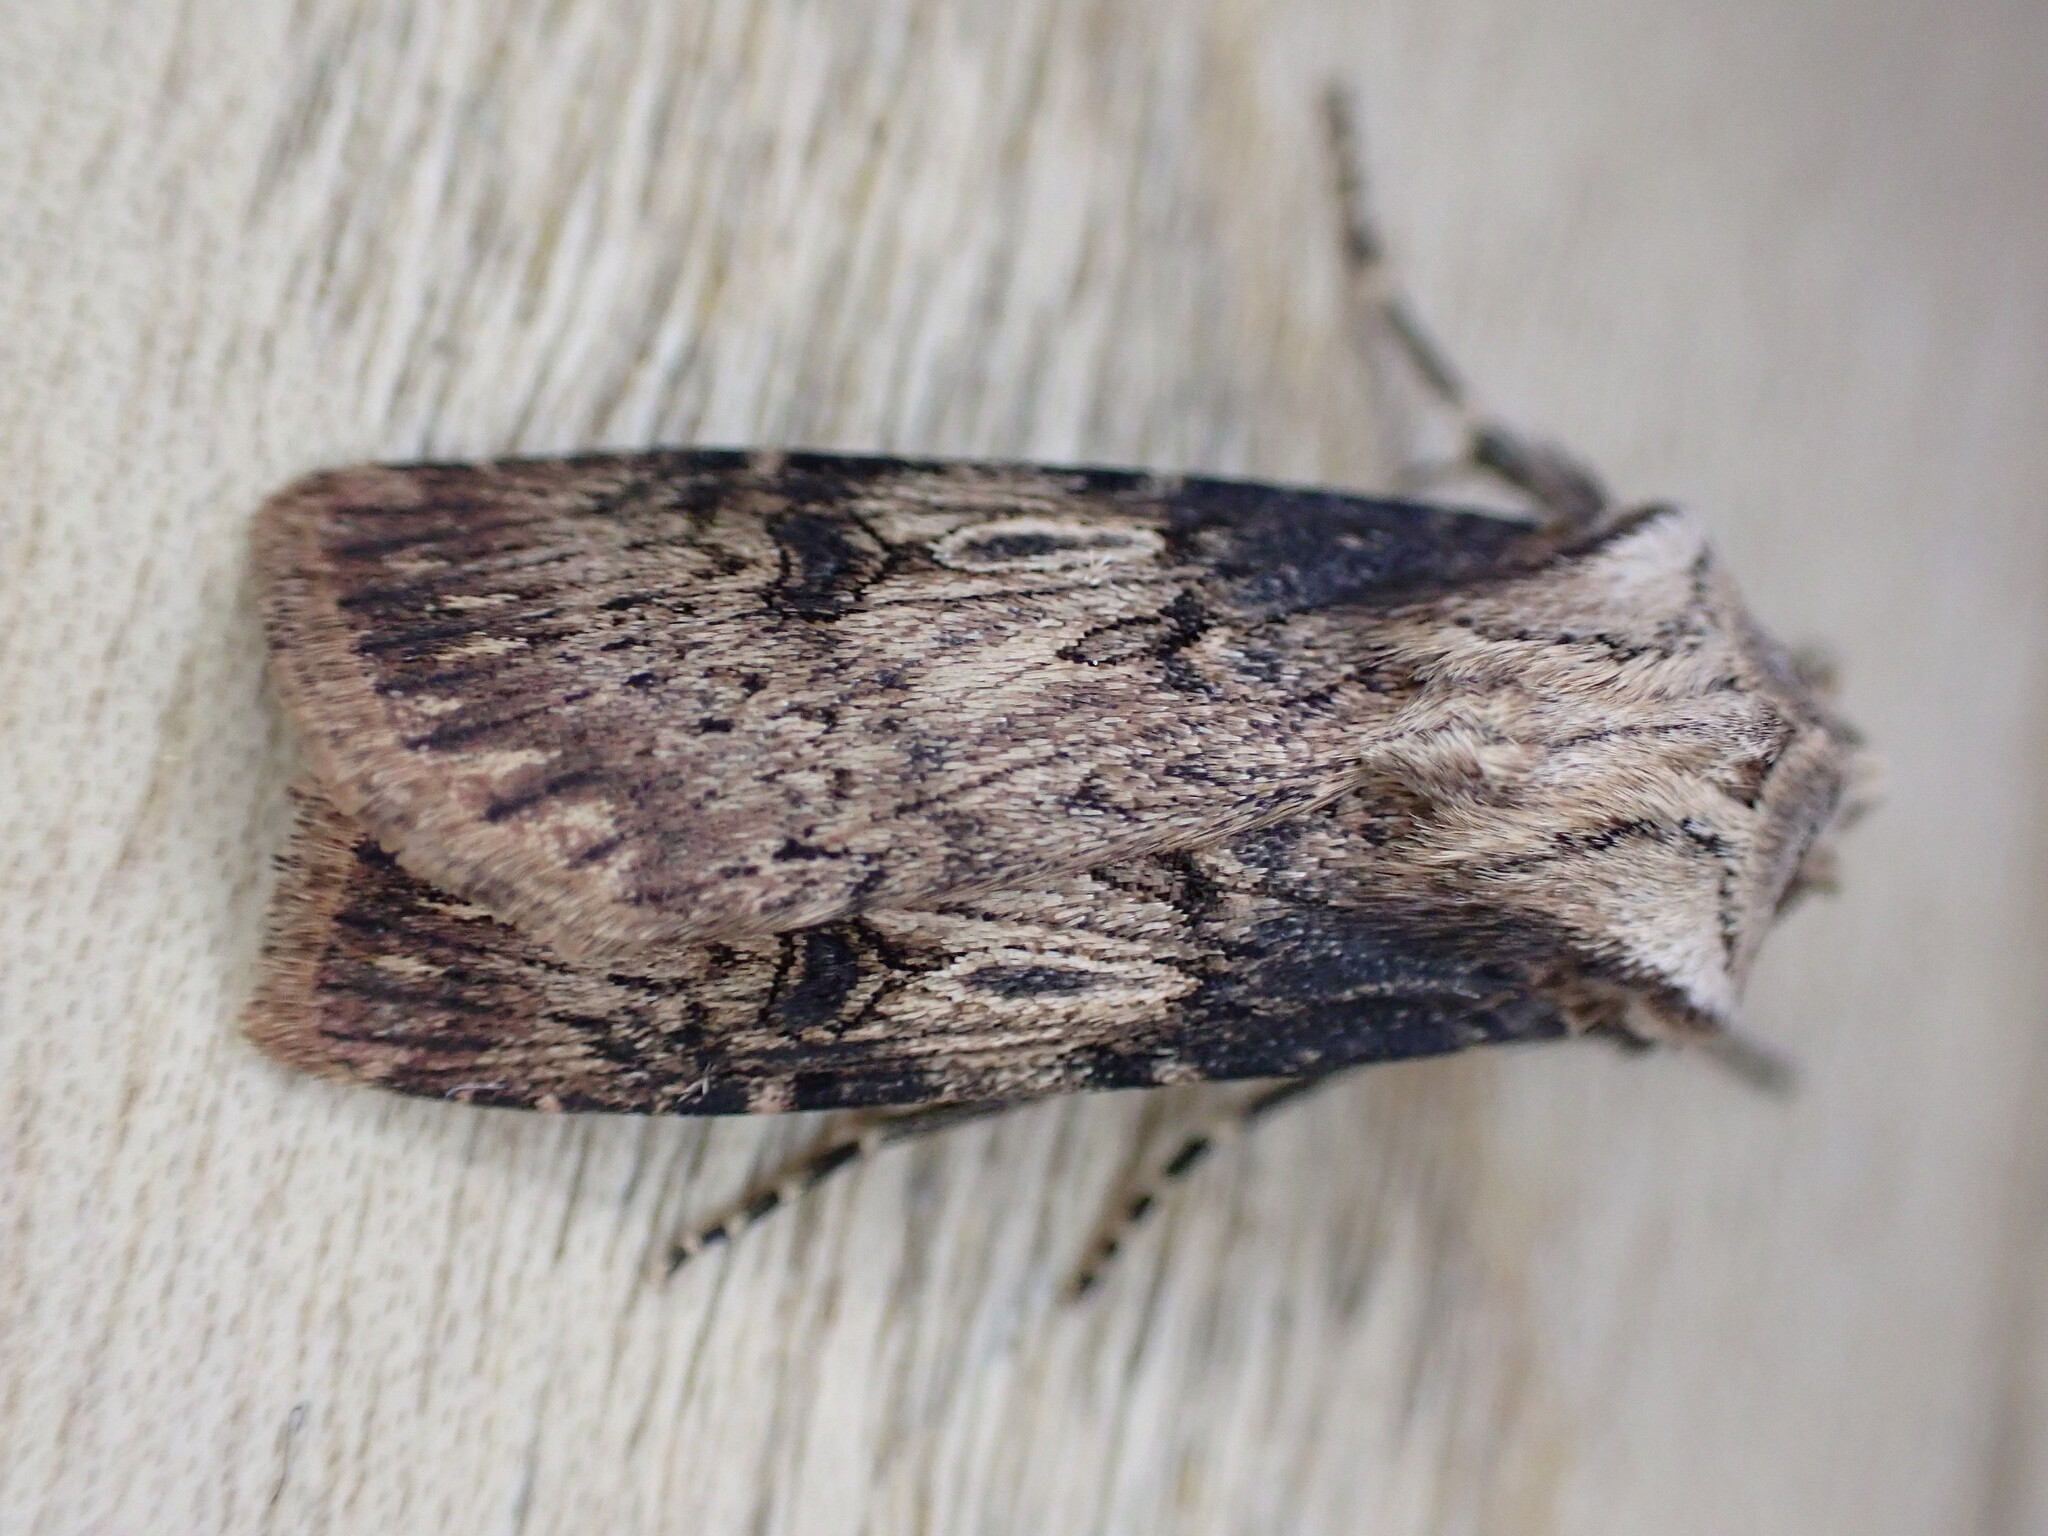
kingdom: Animalia
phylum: Arthropoda
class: Insecta
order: Lepidoptera
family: Noctuidae
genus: Agrotis
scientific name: Agrotis puta
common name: Shuttle-shaped dart
